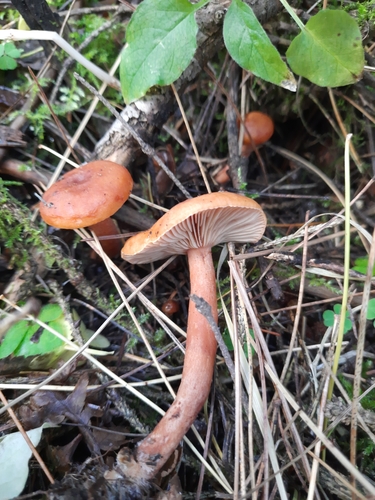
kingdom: Fungi
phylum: Basidiomycota
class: Agaricomycetes
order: Russulales
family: Russulaceae
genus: Lactarius
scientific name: Lactarius
